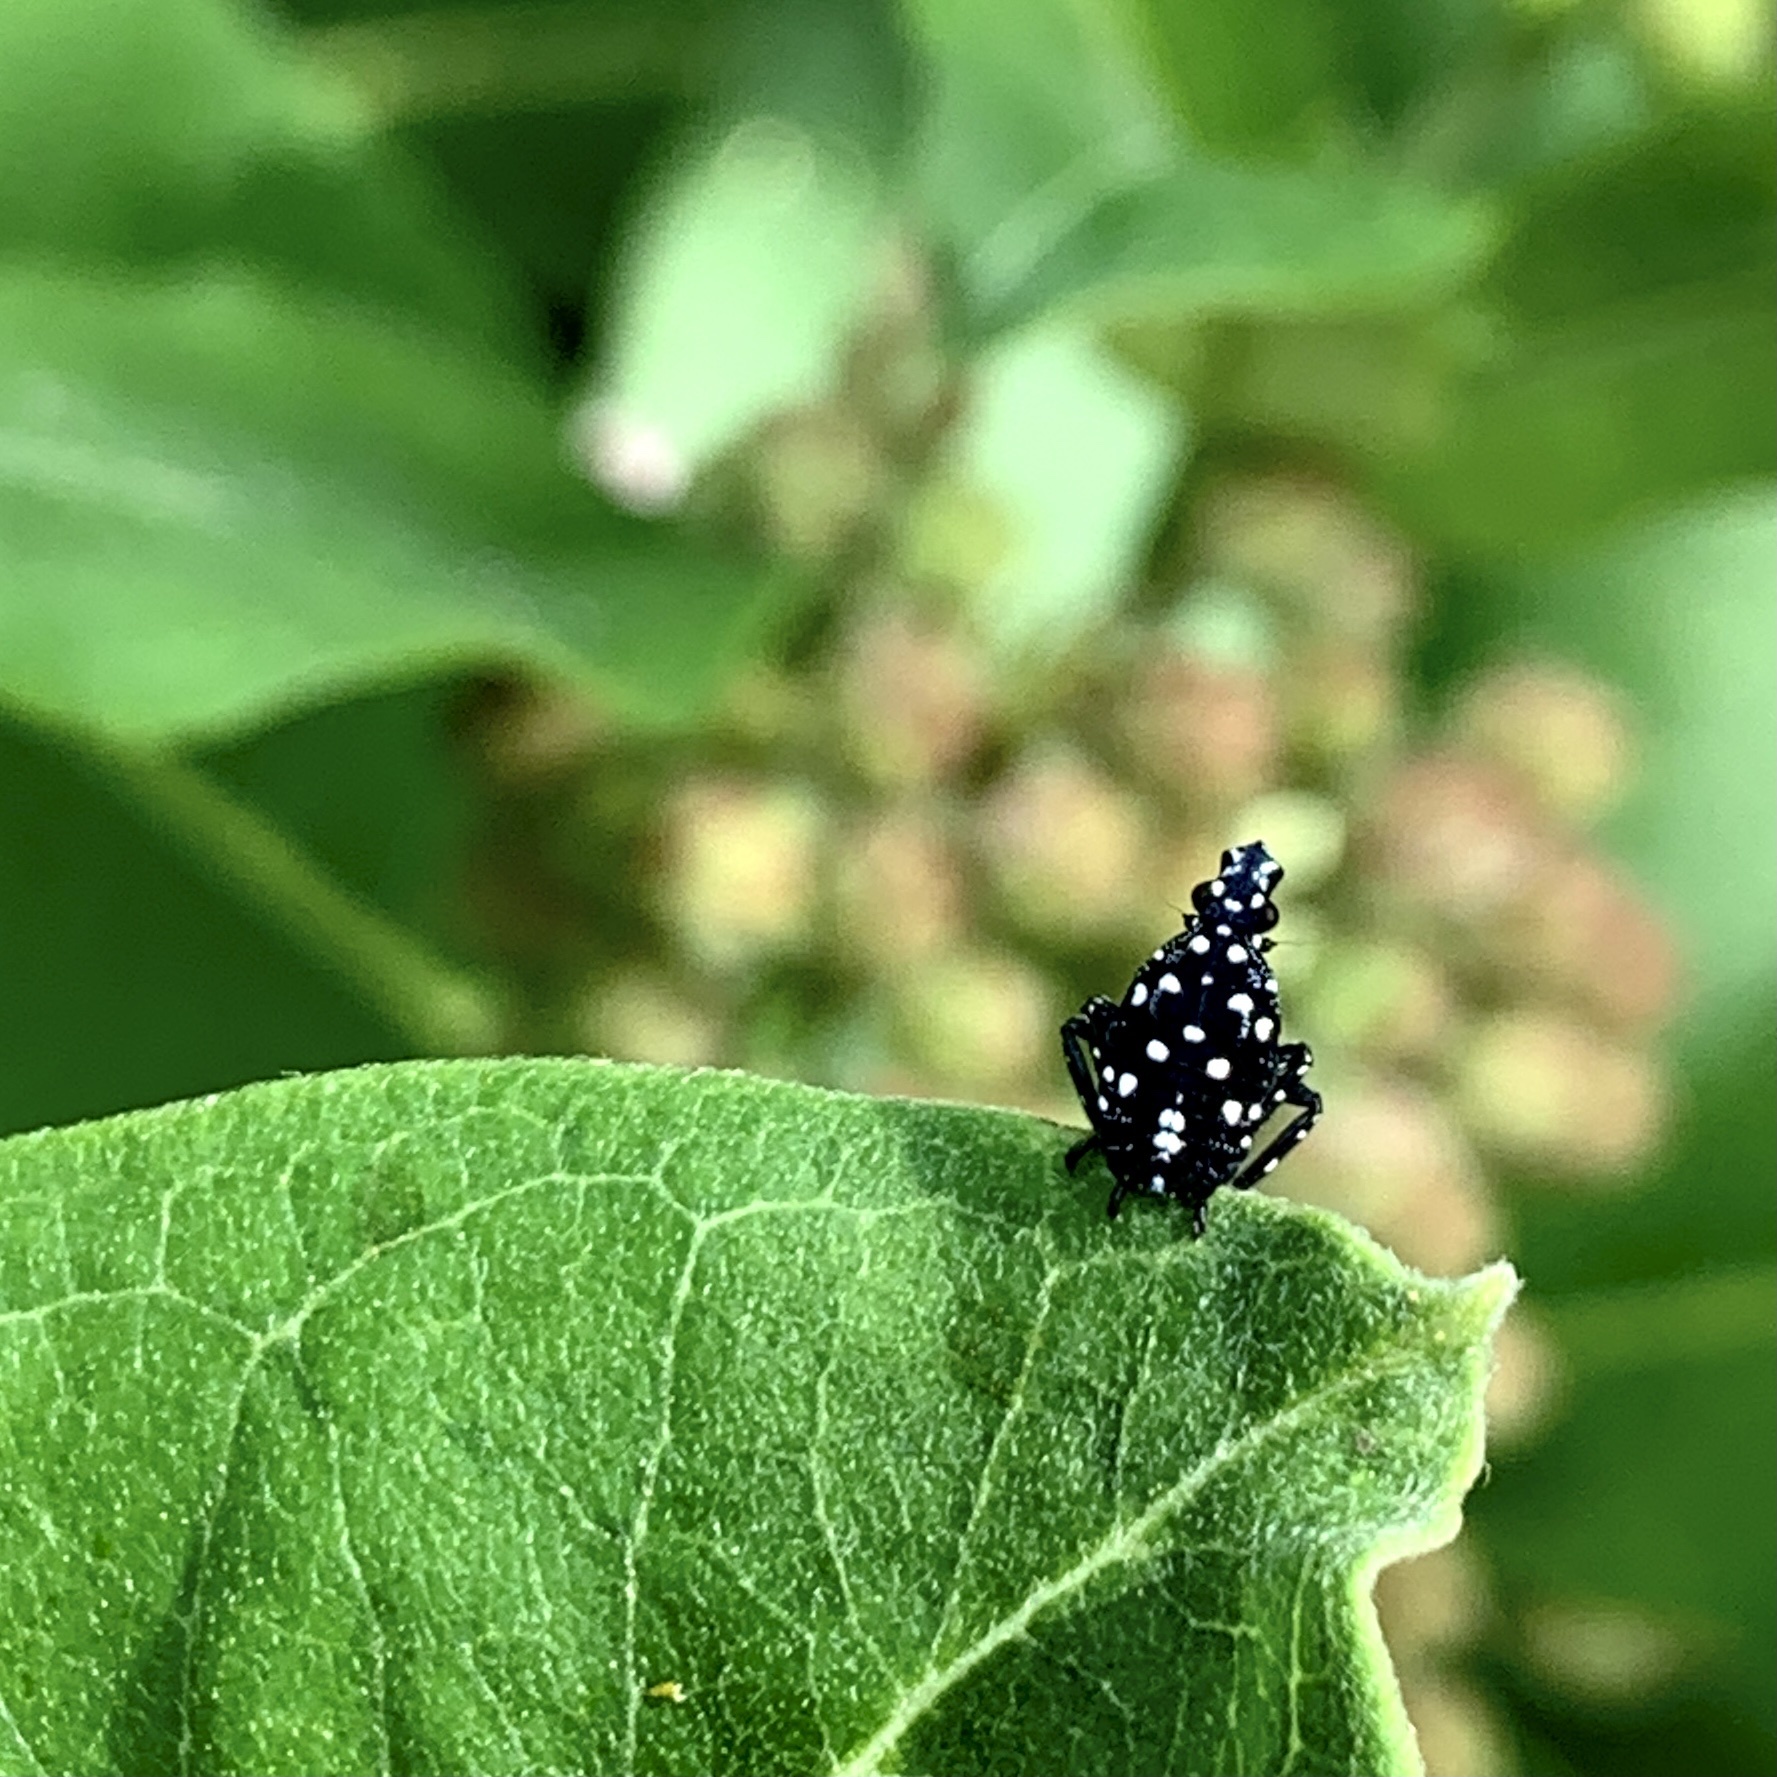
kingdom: Animalia
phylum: Arthropoda
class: Insecta
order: Hemiptera
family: Fulgoridae
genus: Lycorma
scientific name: Lycorma delicatula
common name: Spotted lanternfly
